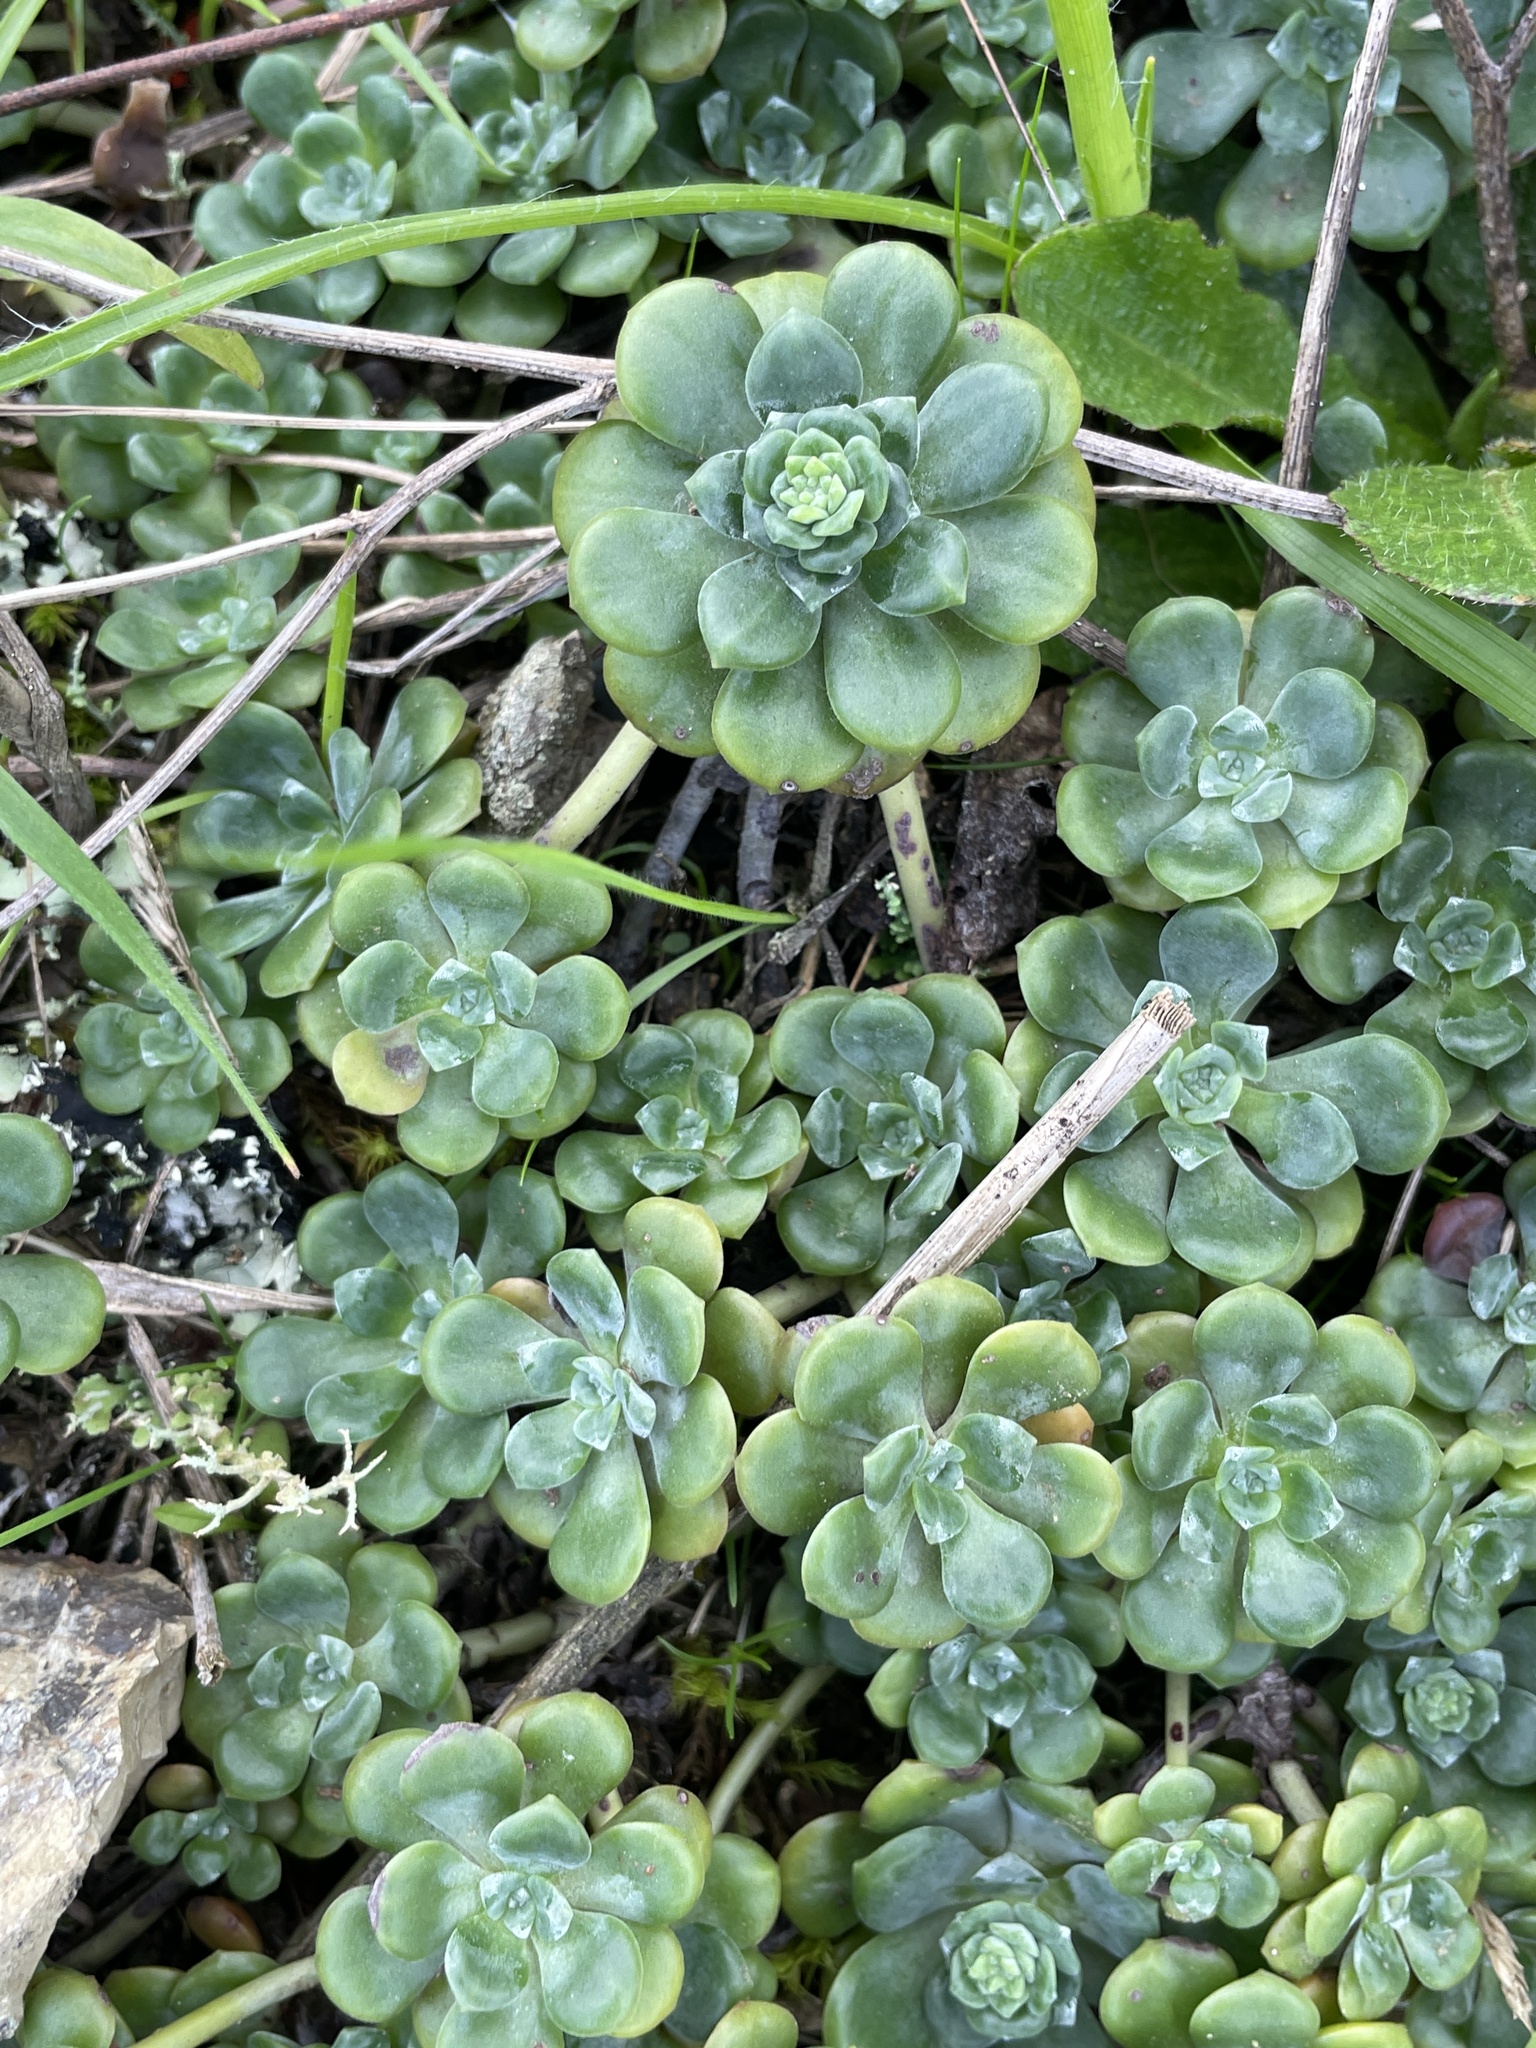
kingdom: Plantae
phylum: Tracheophyta
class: Magnoliopsida
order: Saxifragales
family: Crassulaceae
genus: Sedum
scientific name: Sedum spathulifolium
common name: Colorado stonecrop
